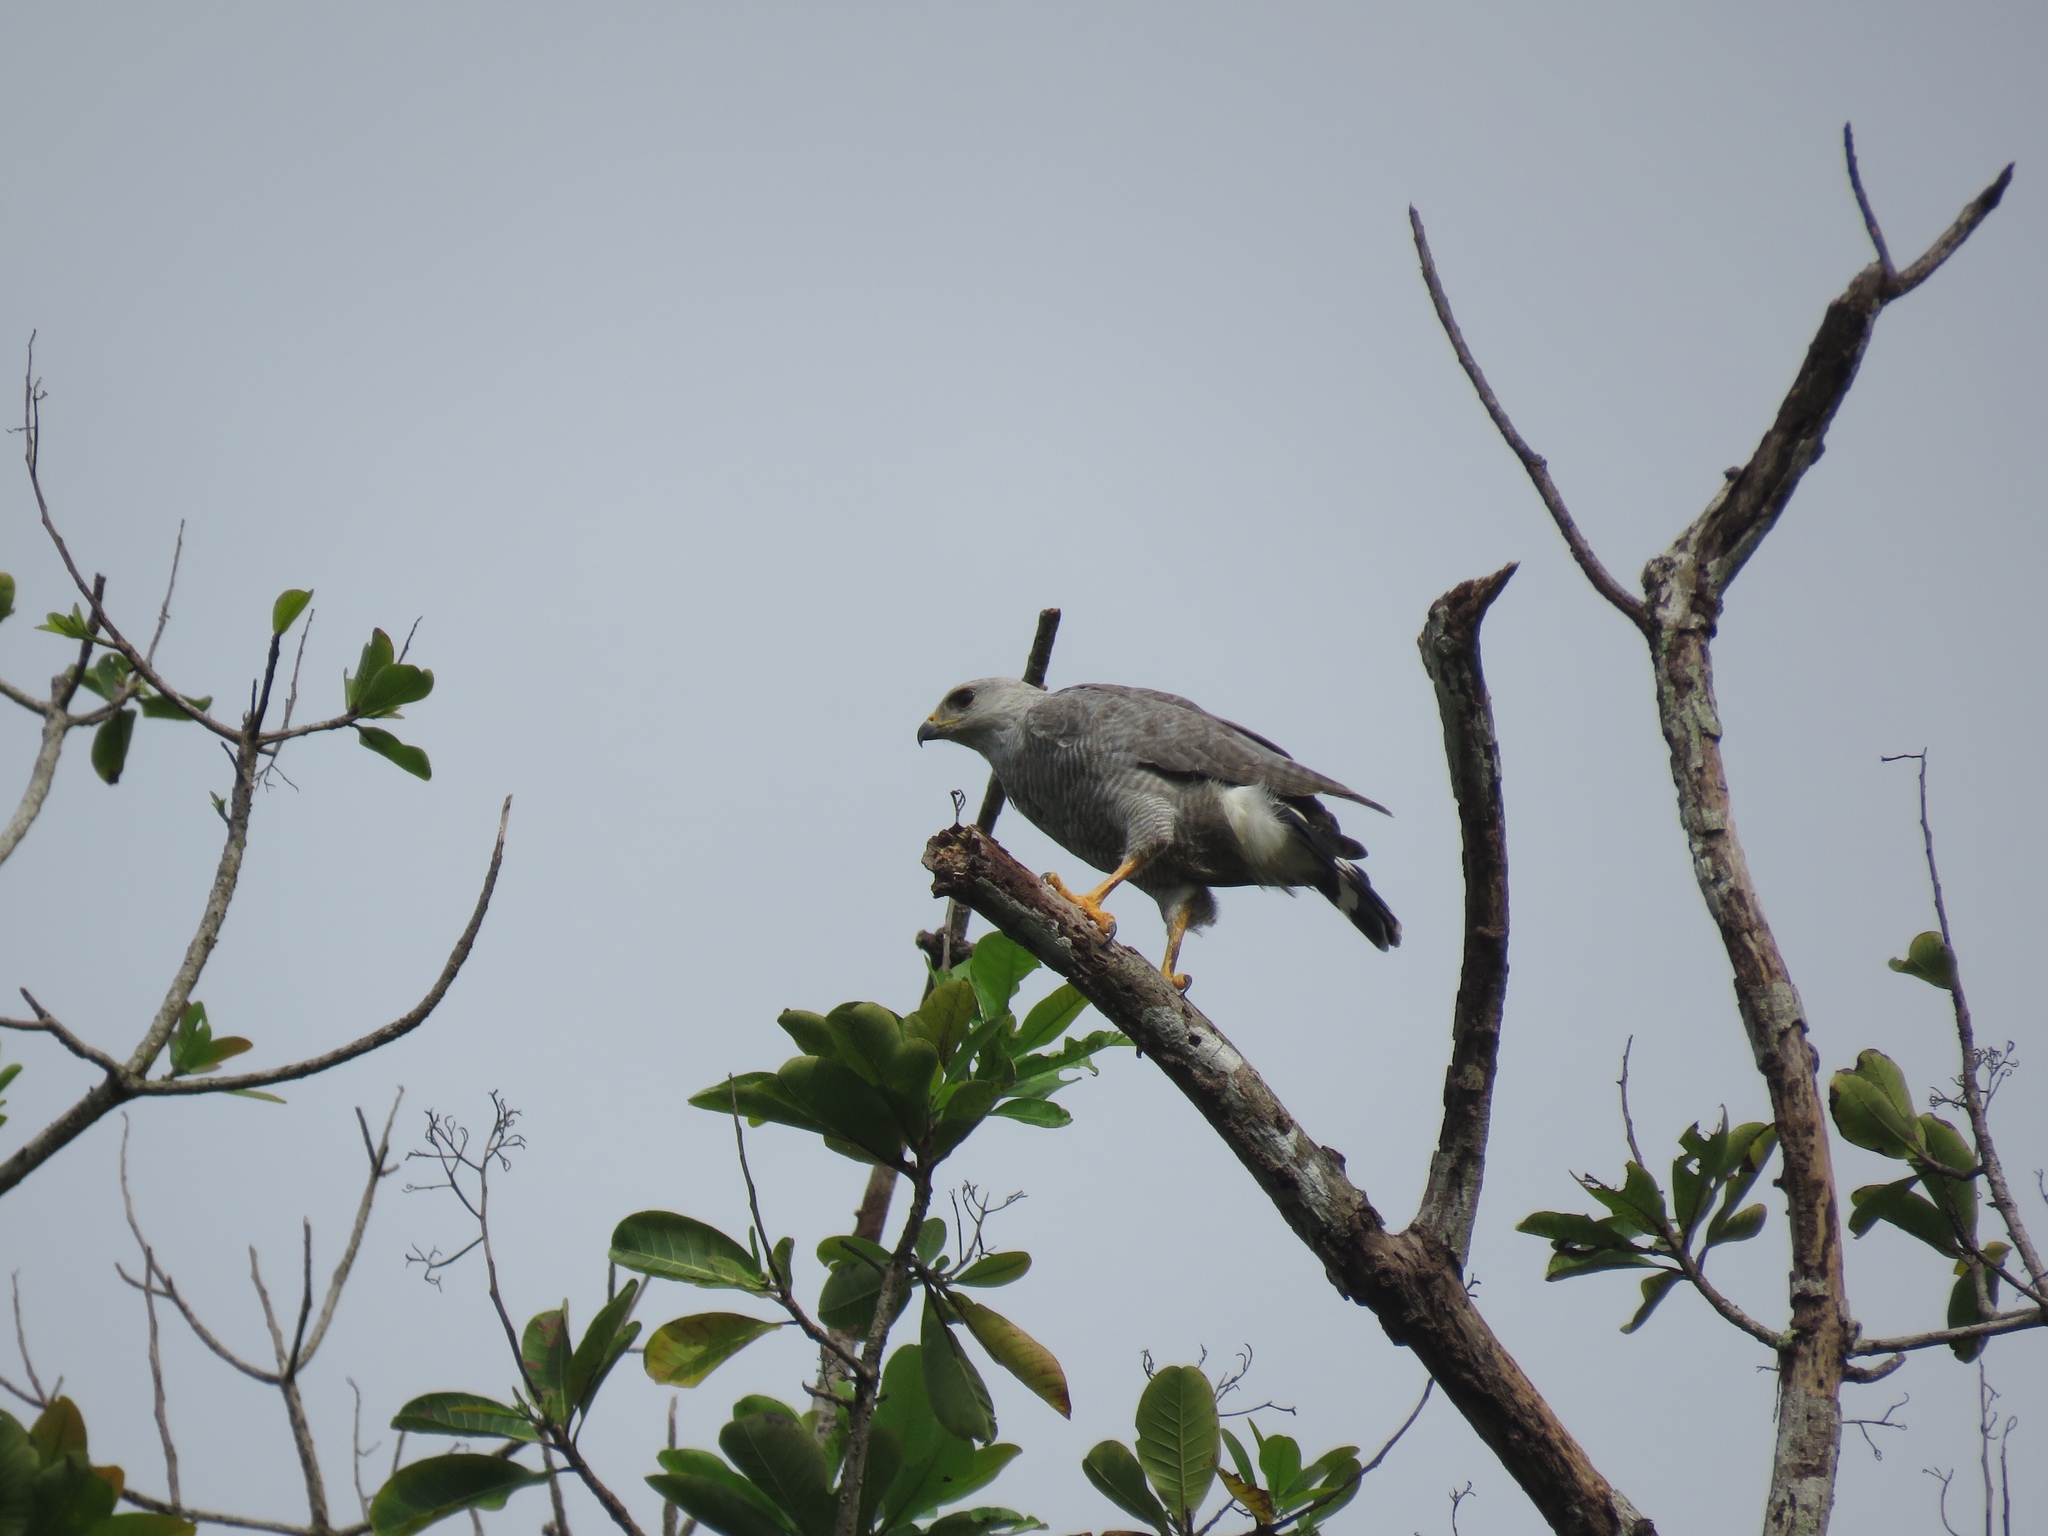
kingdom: Animalia
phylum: Chordata
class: Aves
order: Accipitriformes
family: Accipitridae
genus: Buteo
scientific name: Buteo nitidus
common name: Grey-lined hawk
